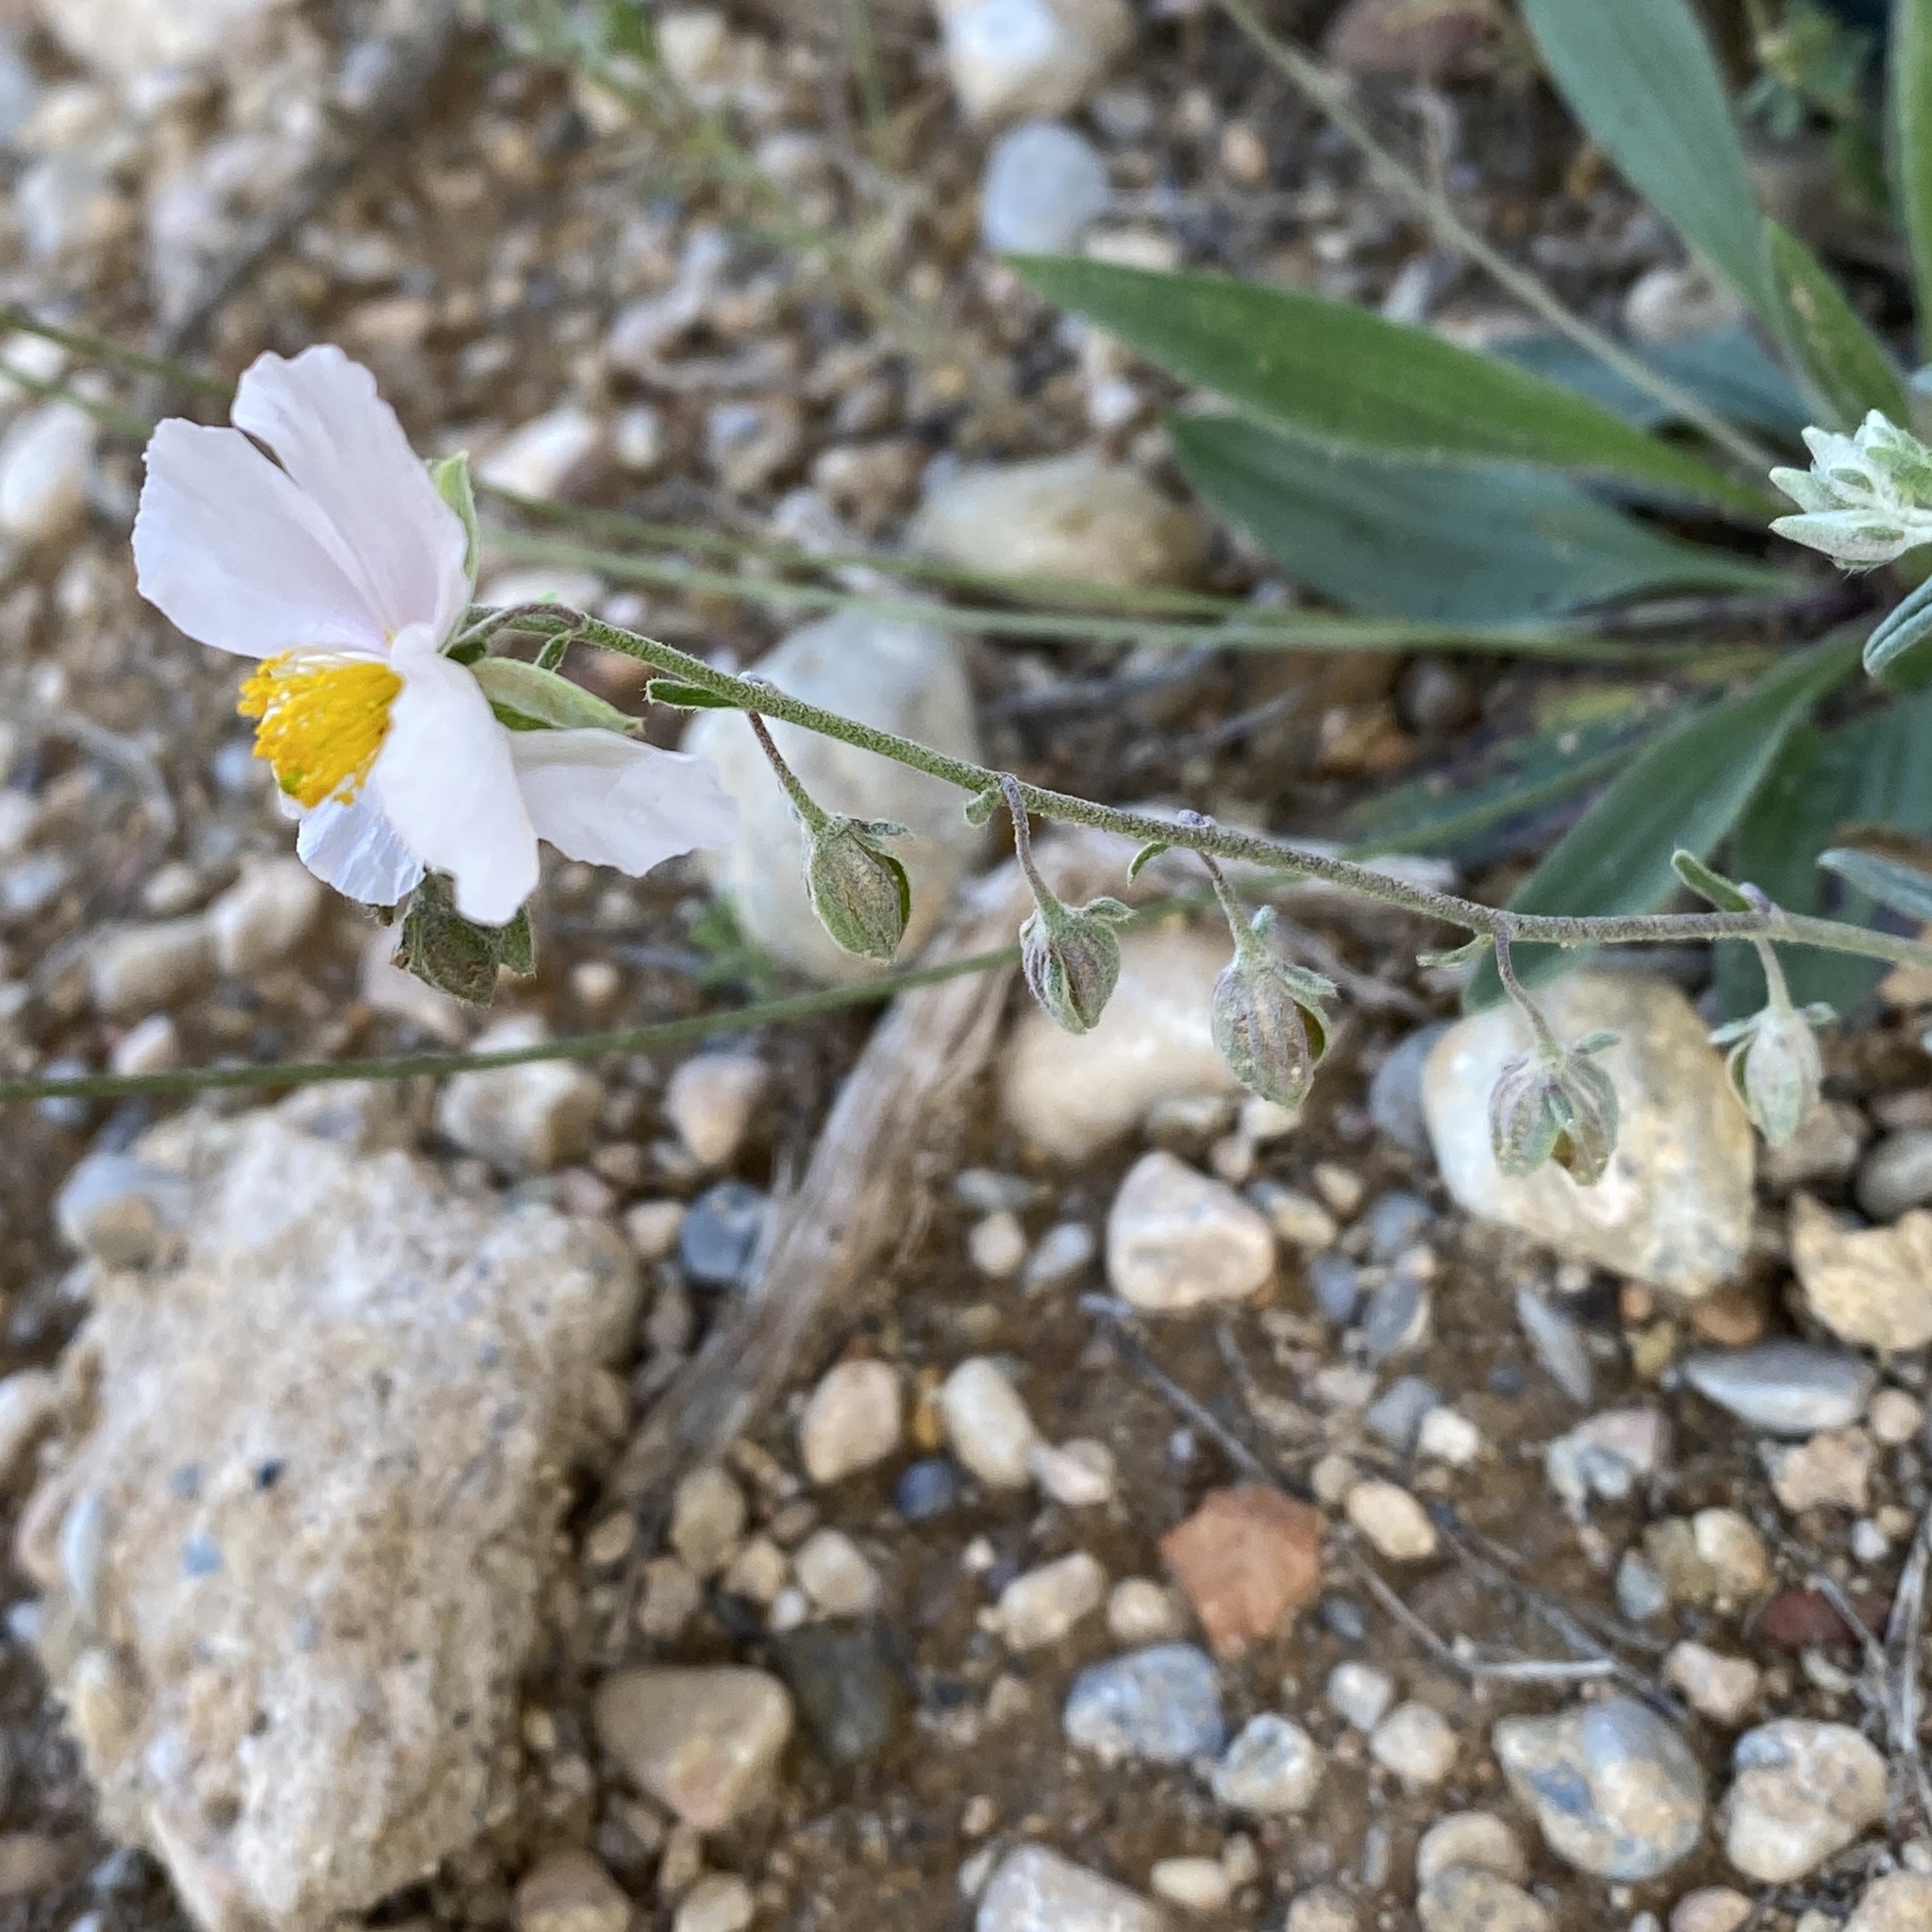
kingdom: Plantae
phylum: Tracheophyta
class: Magnoliopsida
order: Malvales
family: Cistaceae
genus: Helianthemum
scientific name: Helianthemum apenninum
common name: White rock-rose
